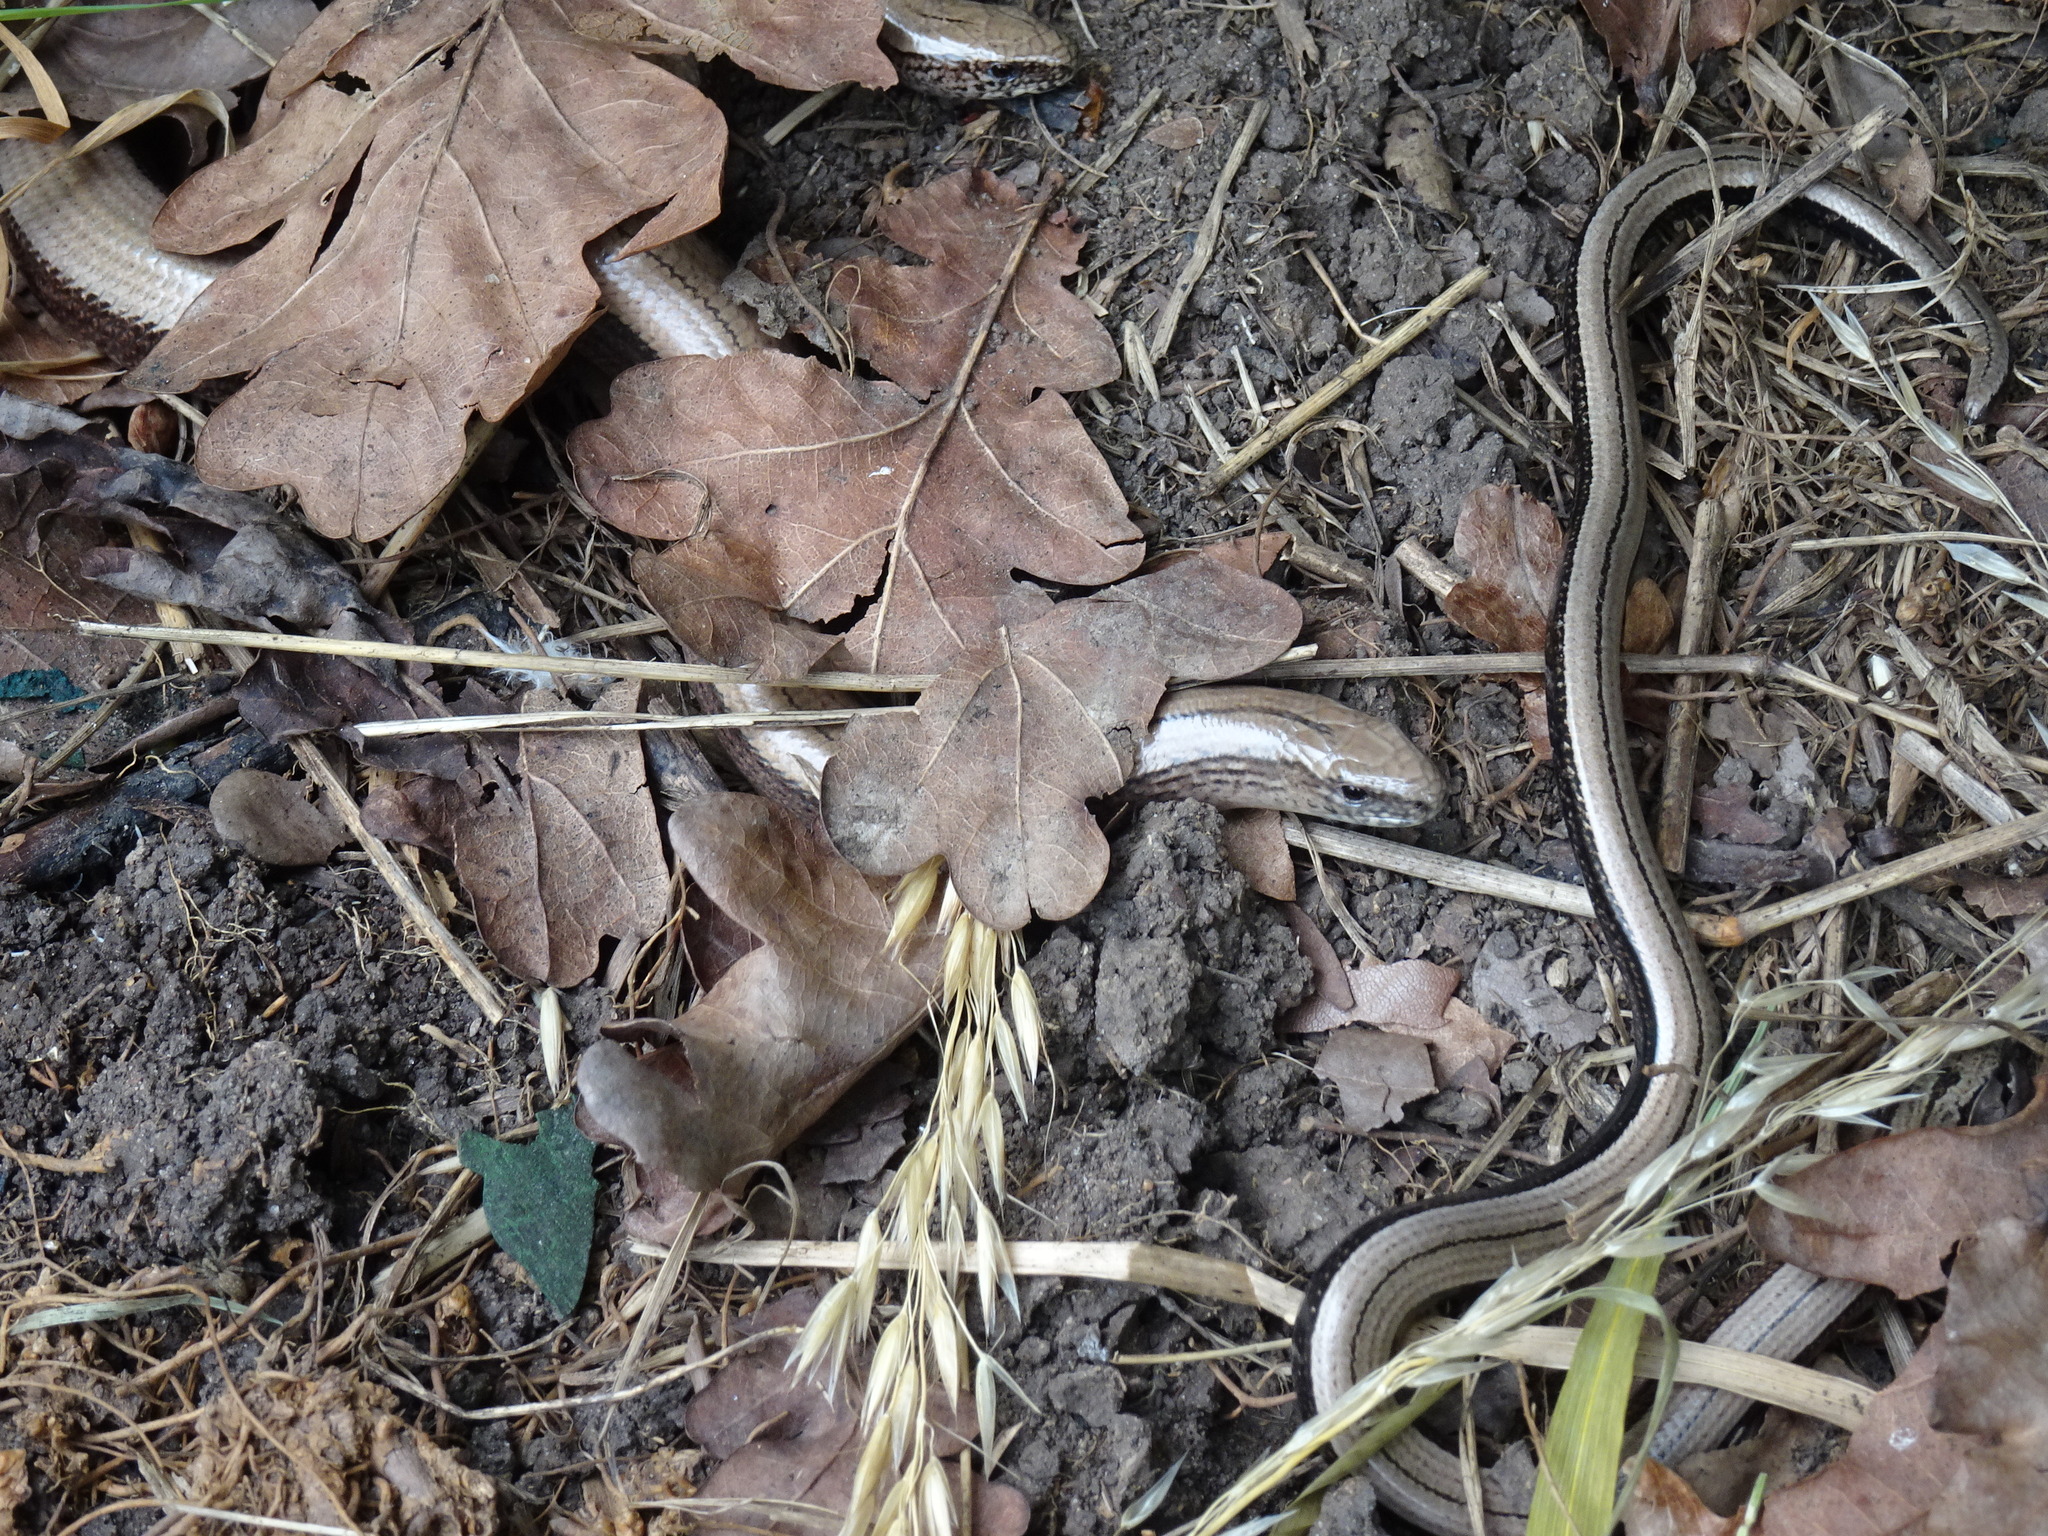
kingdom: Animalia
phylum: Chordata
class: Squamata
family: Anguidae
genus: Anguis
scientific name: Anguis fragilis
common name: Slow worm
